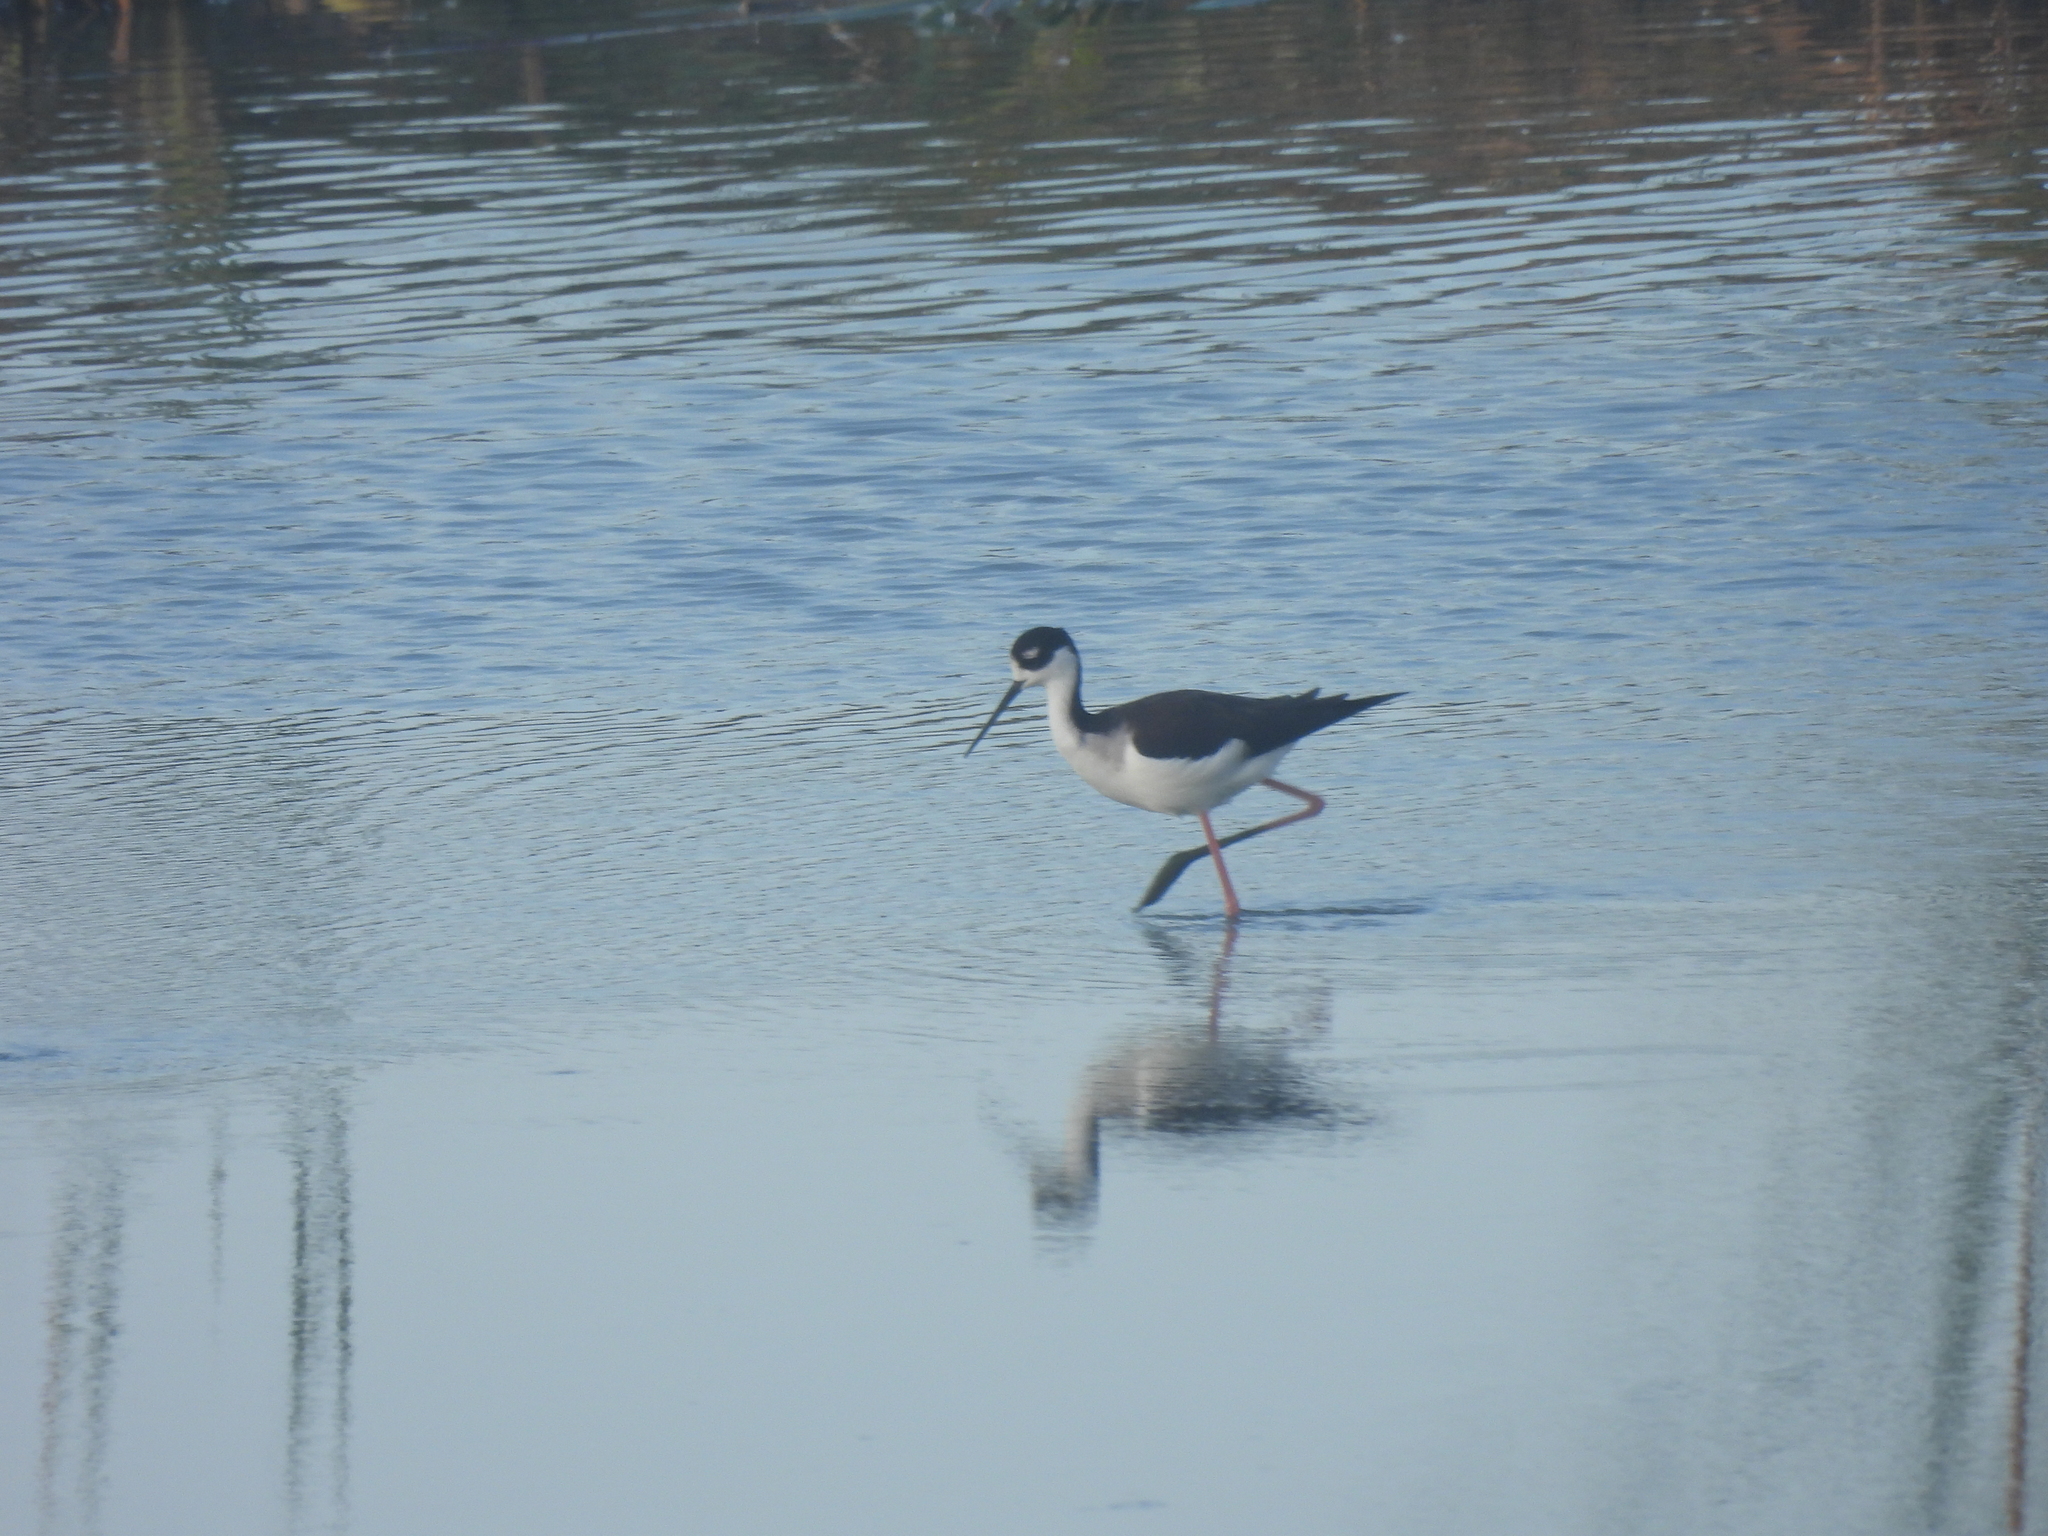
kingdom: Animalia
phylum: Chordata
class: Aves
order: Charadriiformes
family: Recurvirostridae
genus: Himantopus
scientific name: Himantopus mexicanus
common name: Black-necked stilt
